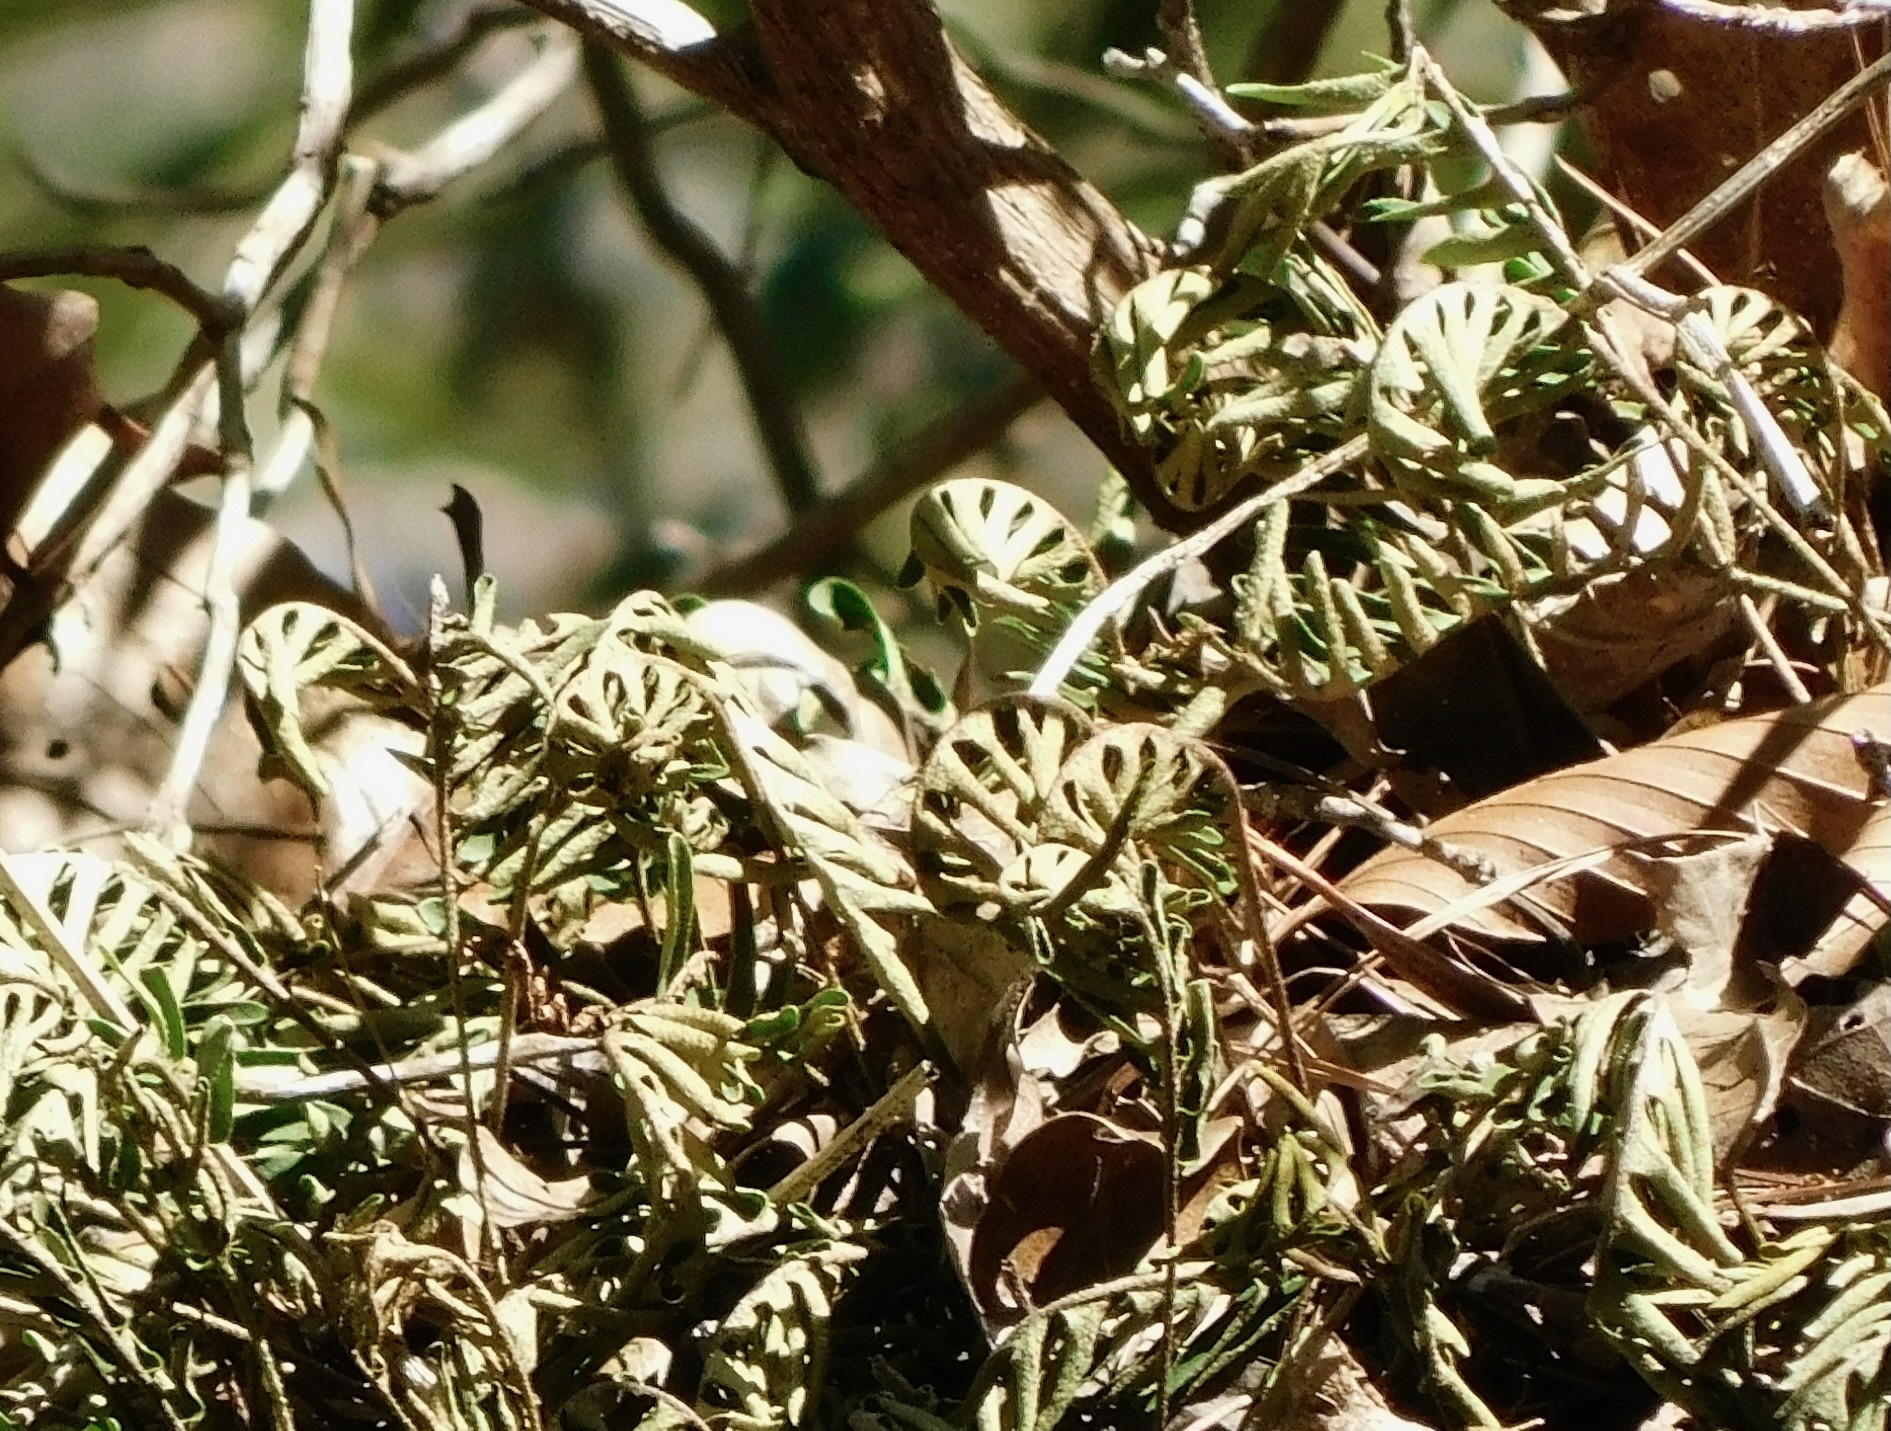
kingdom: Plantae
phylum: Tracheophyta
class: Polypodiopsida
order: Polypodiales
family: Polypodiaceae
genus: Pleopeltis
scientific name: Pleopeltis michauxiana
